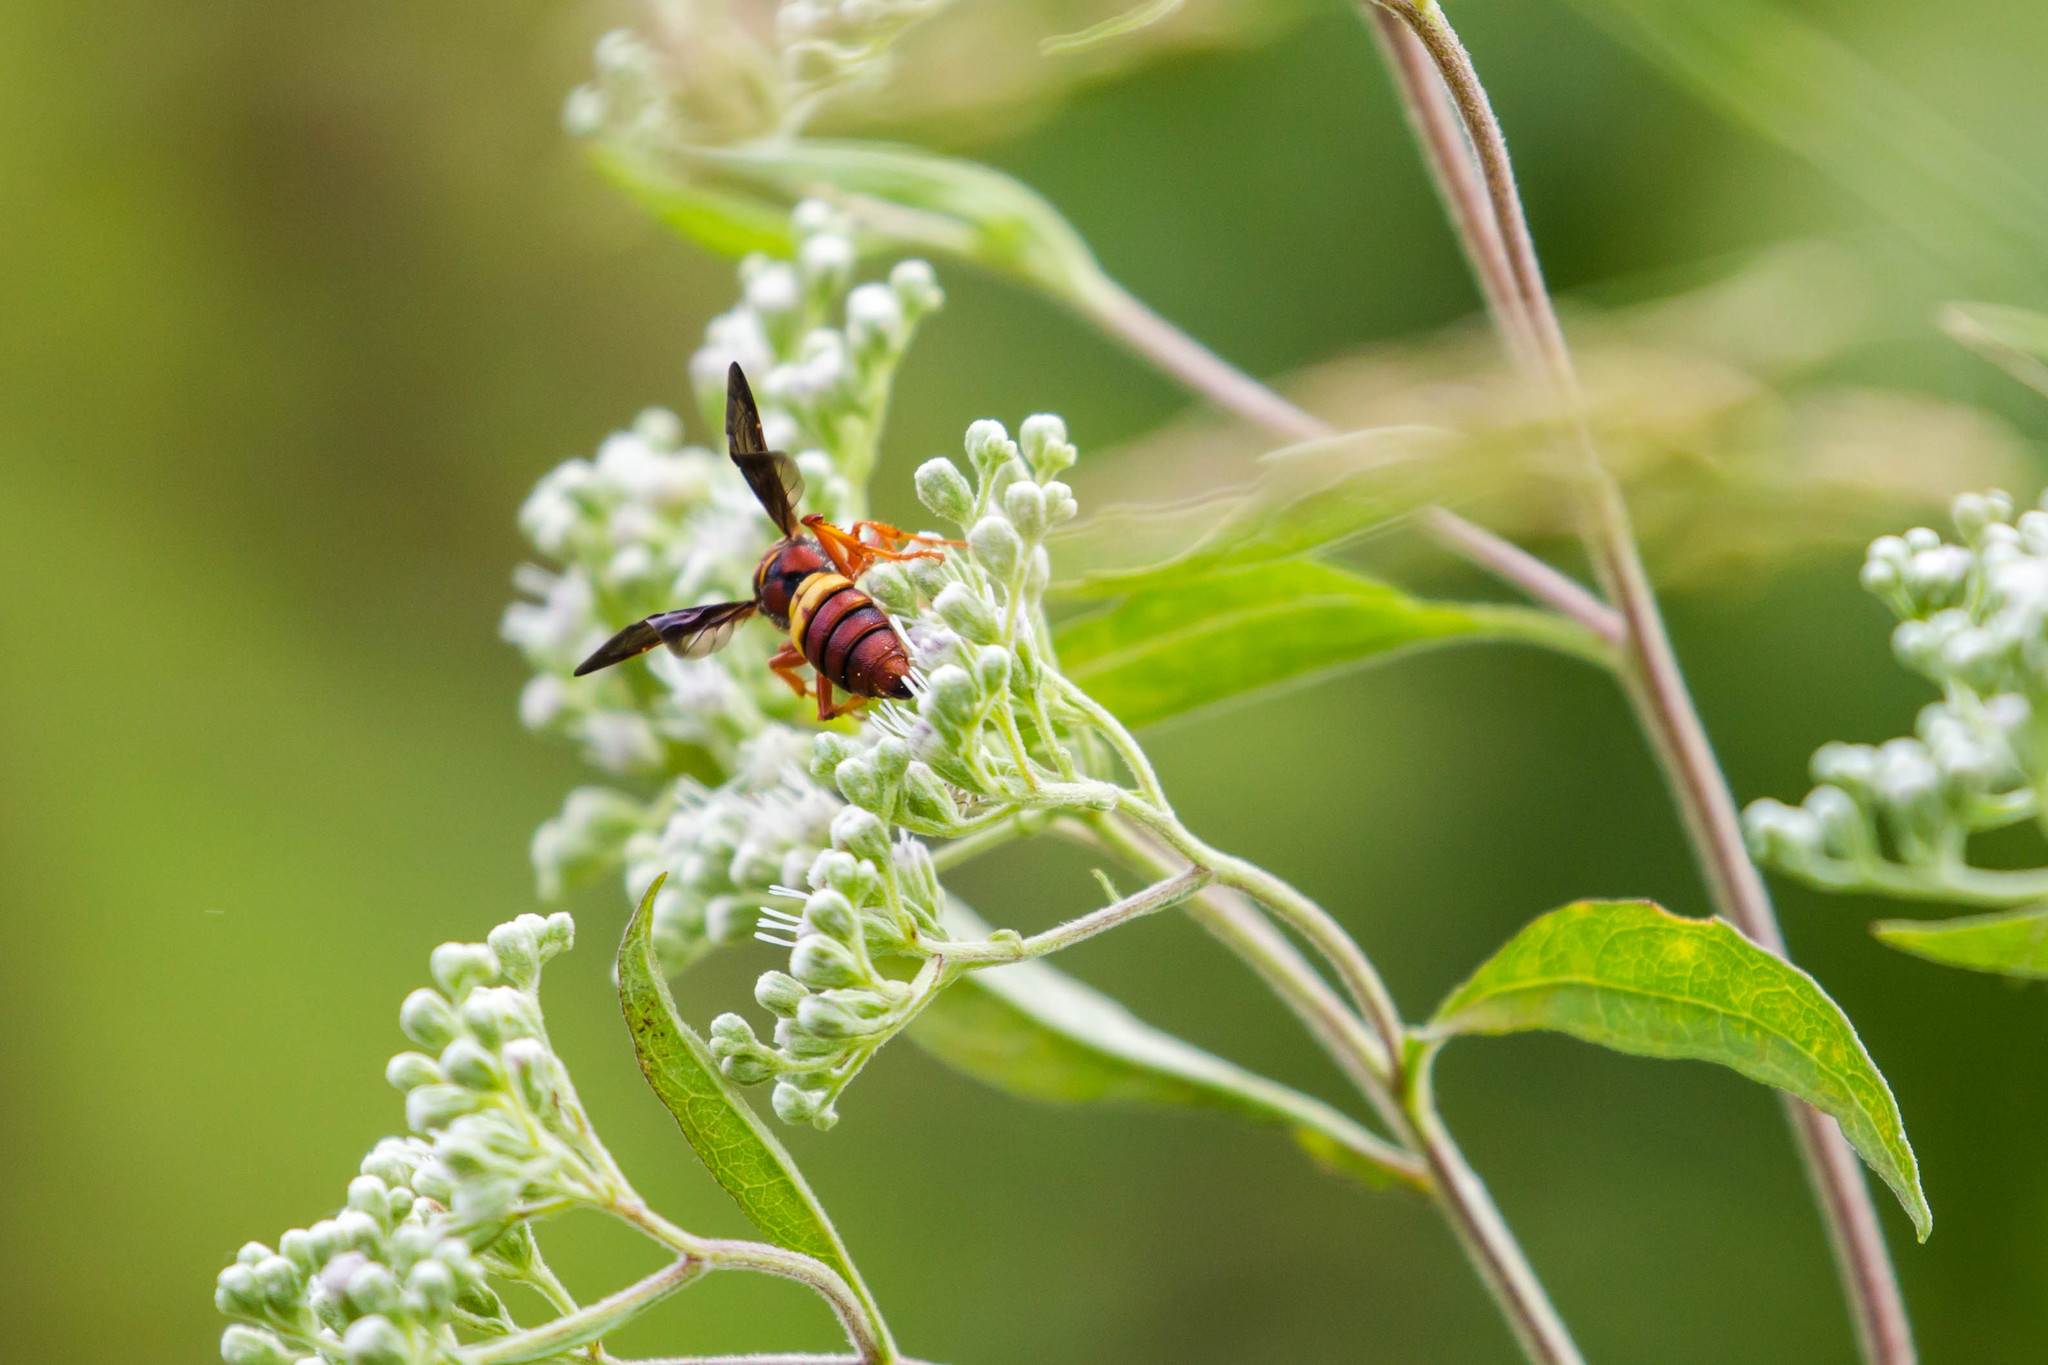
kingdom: Animalia
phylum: Arthropoda
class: Insecta
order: Hymenoptera
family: Crabronidae
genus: Cerceris
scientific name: Cerceris bicornuta
